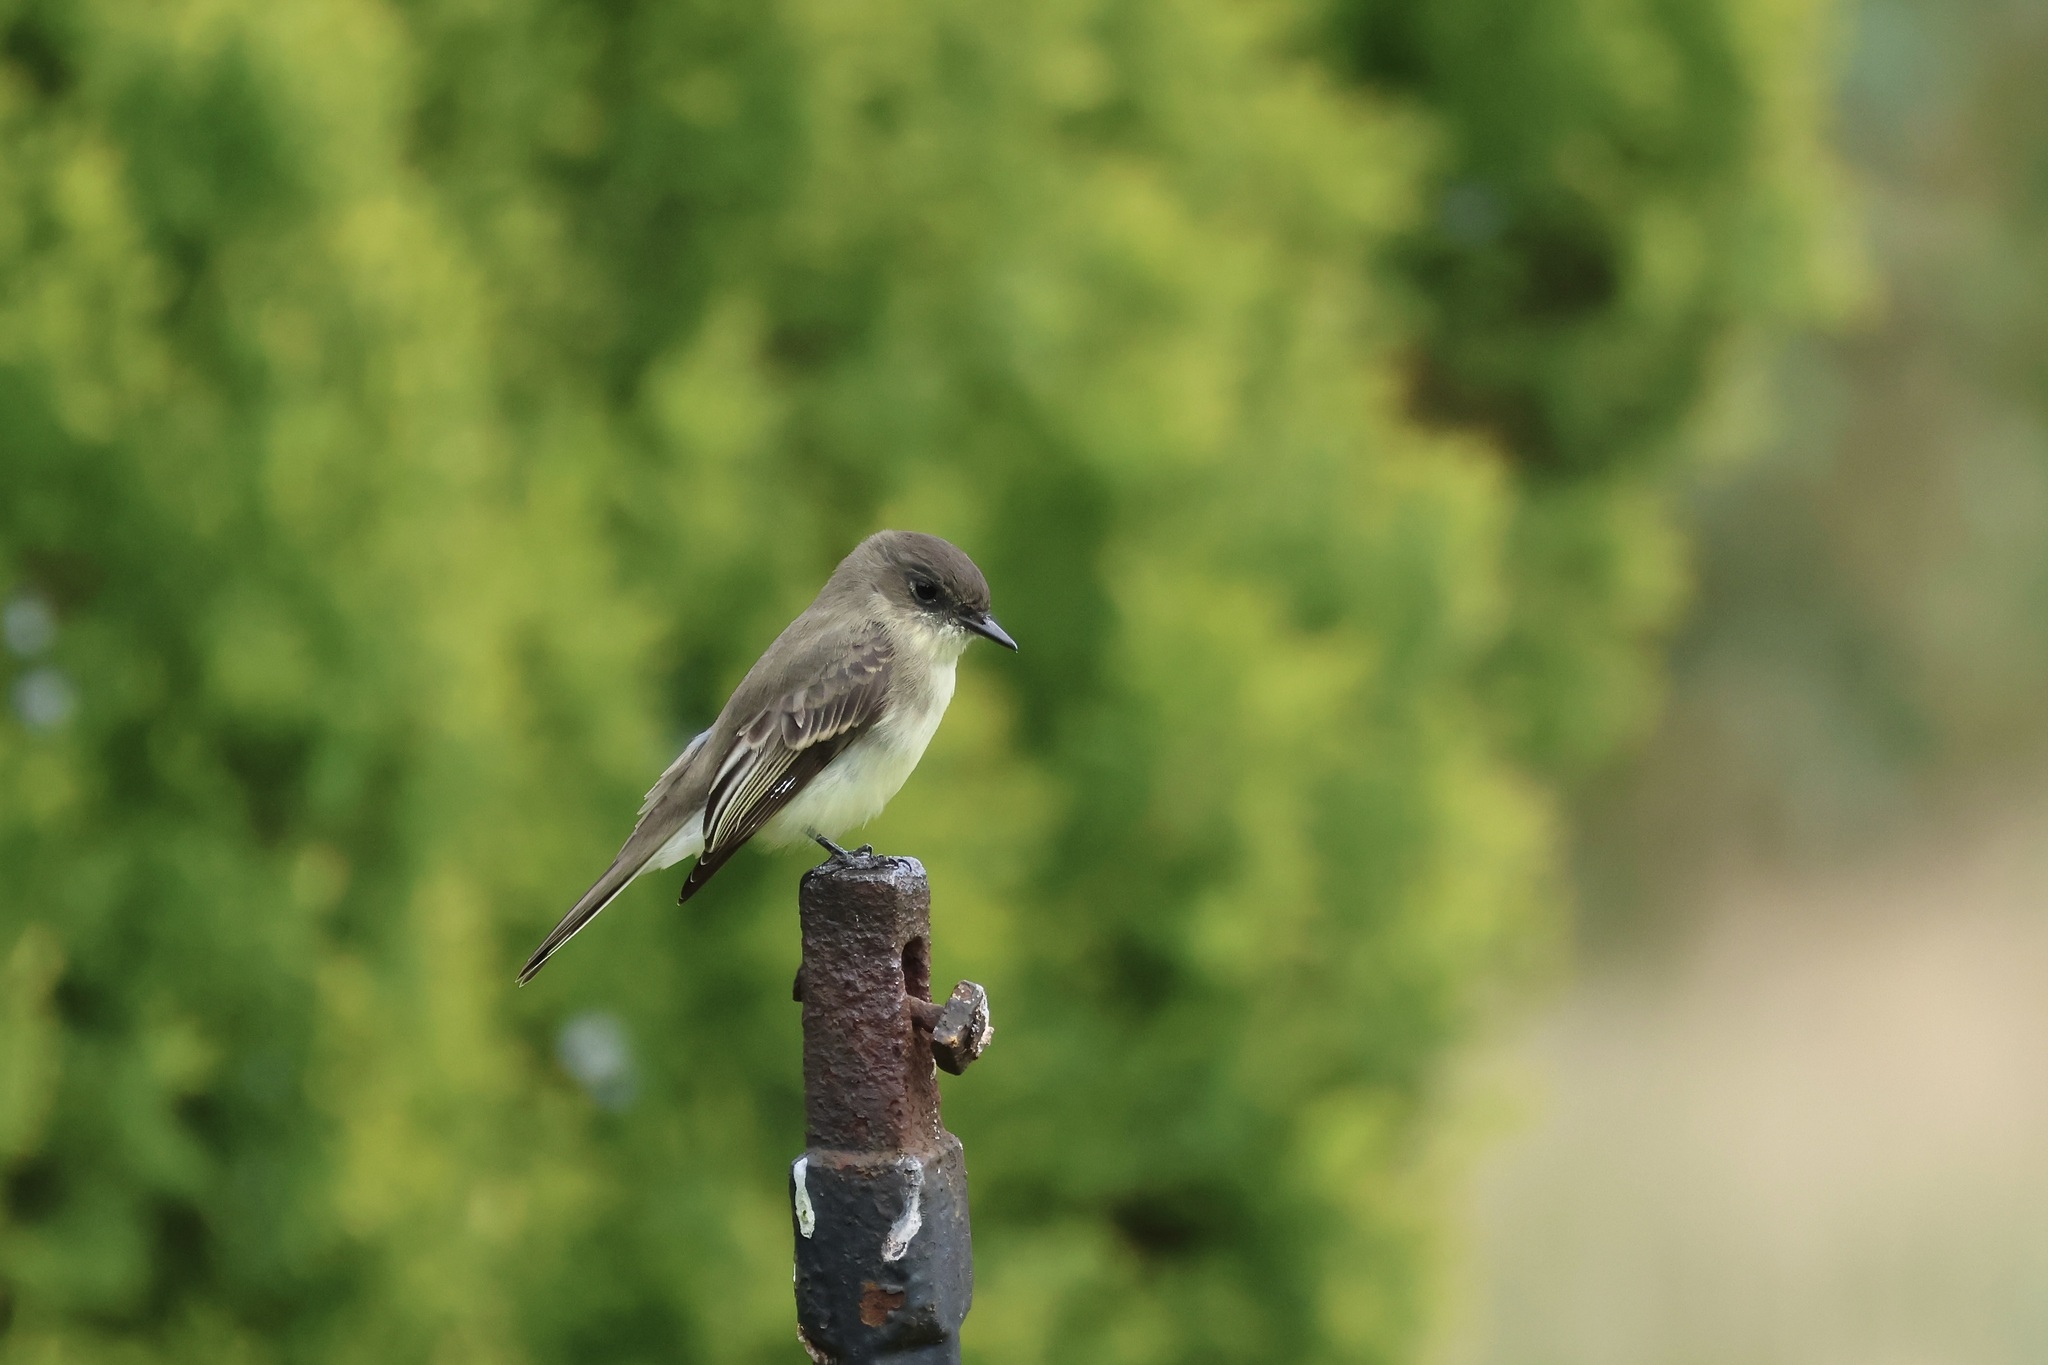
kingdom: Animalia
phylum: Chordata
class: Aves
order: Passeriformes
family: Tyrannidae
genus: Sayornis
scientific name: Sayornis phoebe
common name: Eastern phoebe
